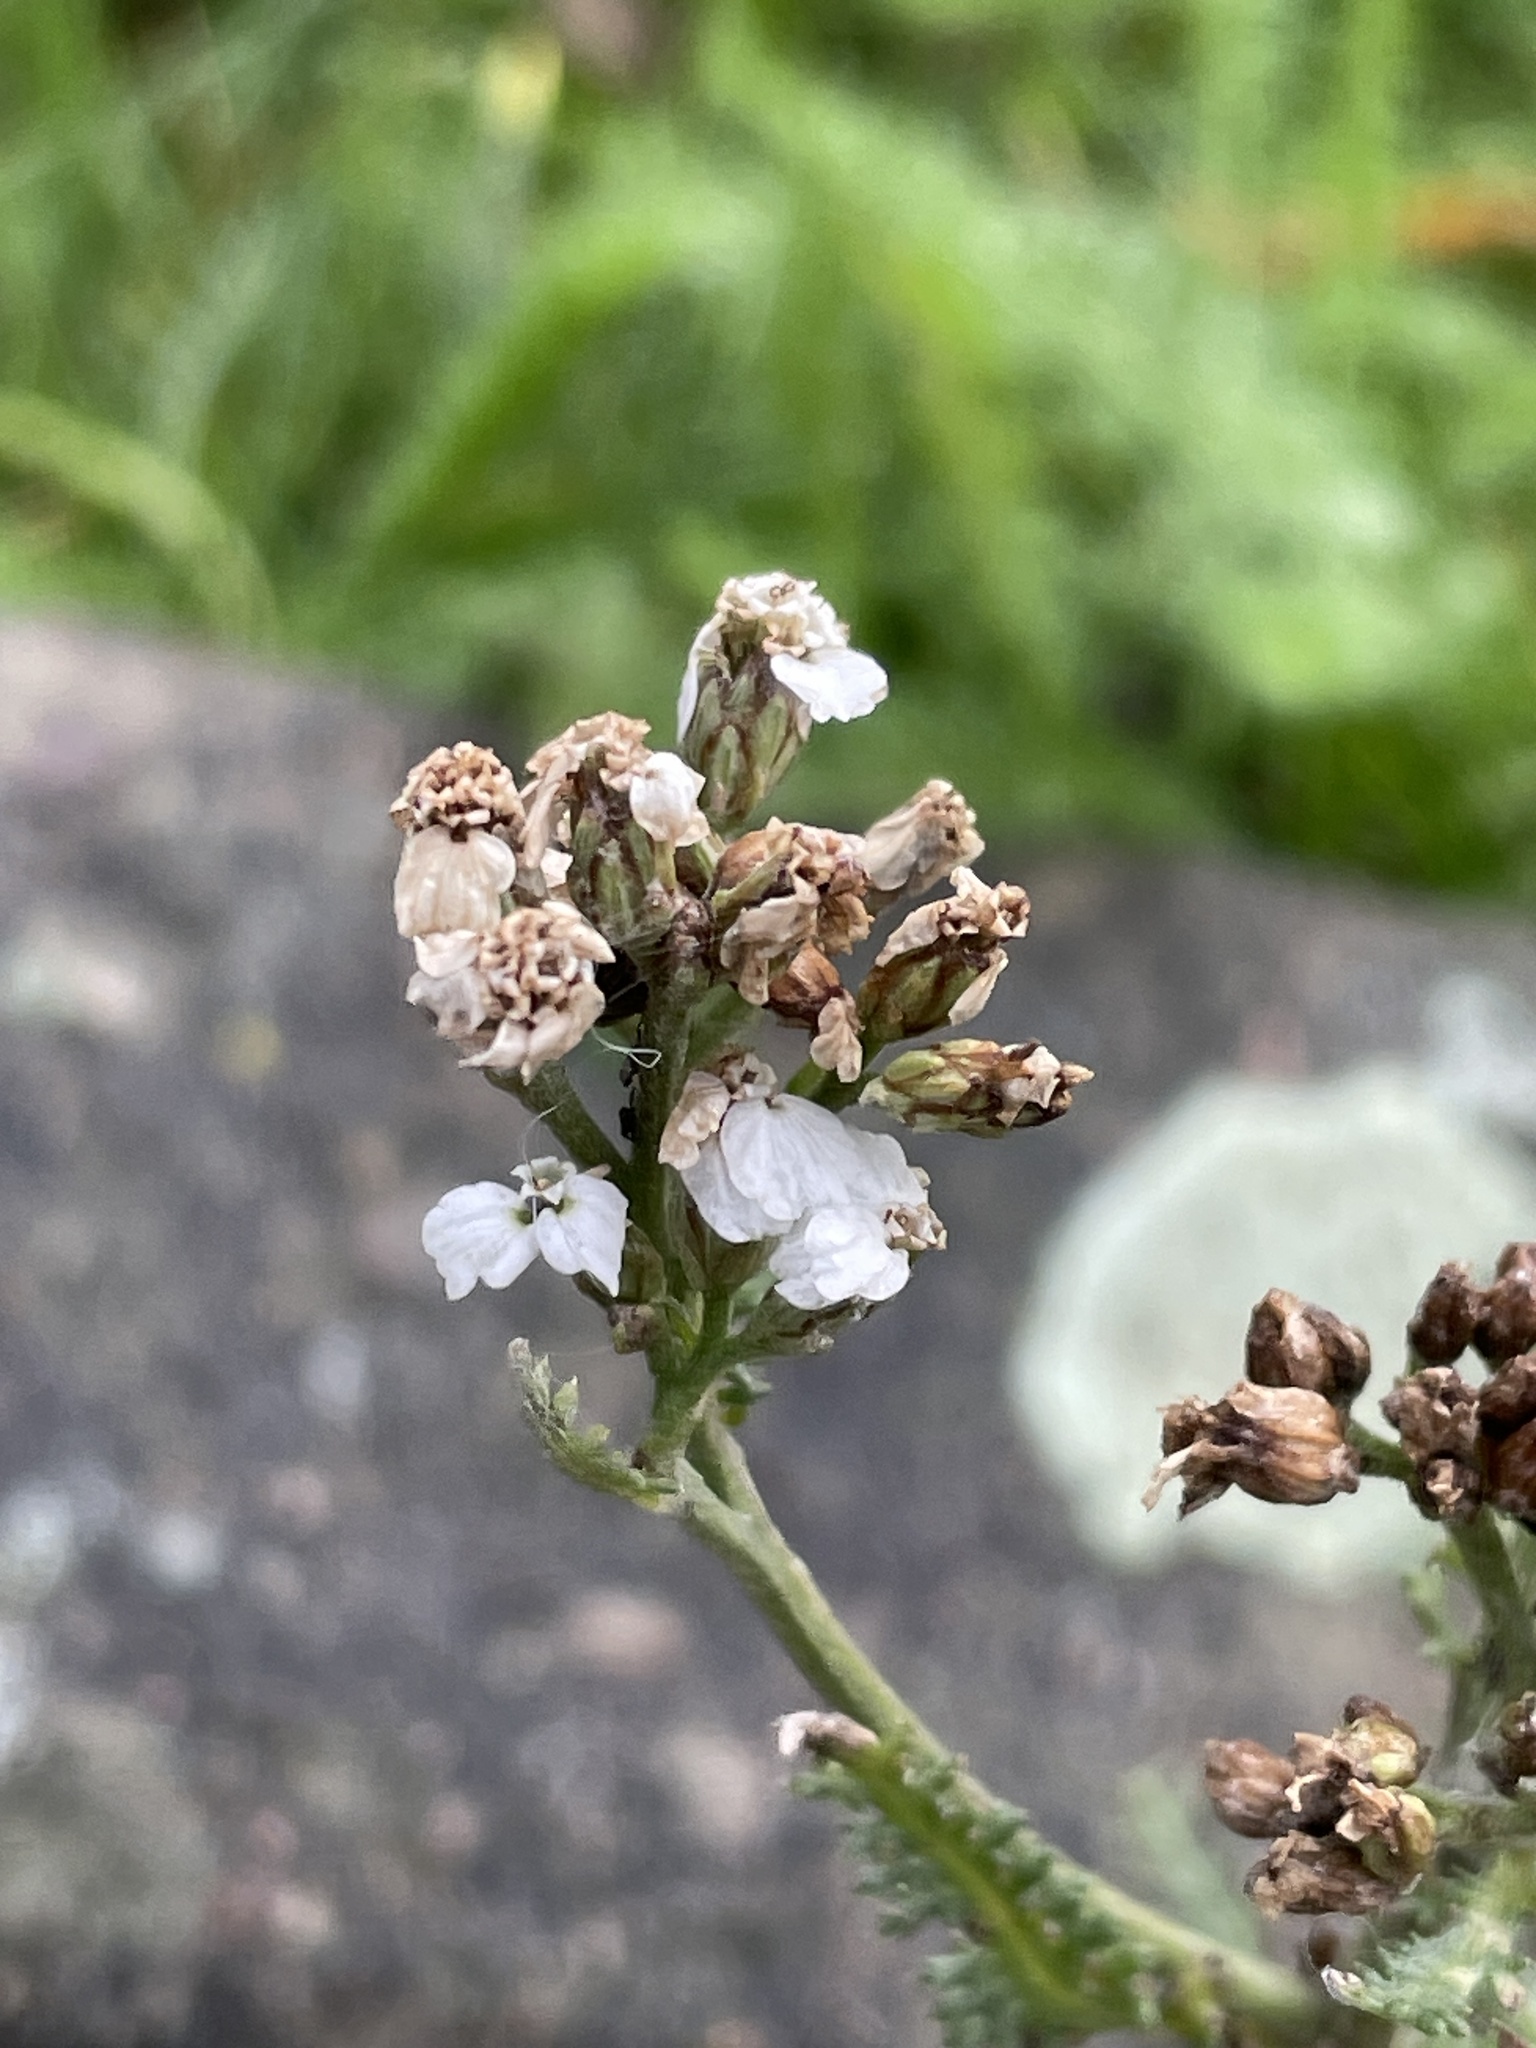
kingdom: Plantae
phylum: Tracheophyta
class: Magnoliopsida
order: Asterales
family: Asteraceae
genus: Achillea
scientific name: Achillea millefolium
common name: Yarrow
